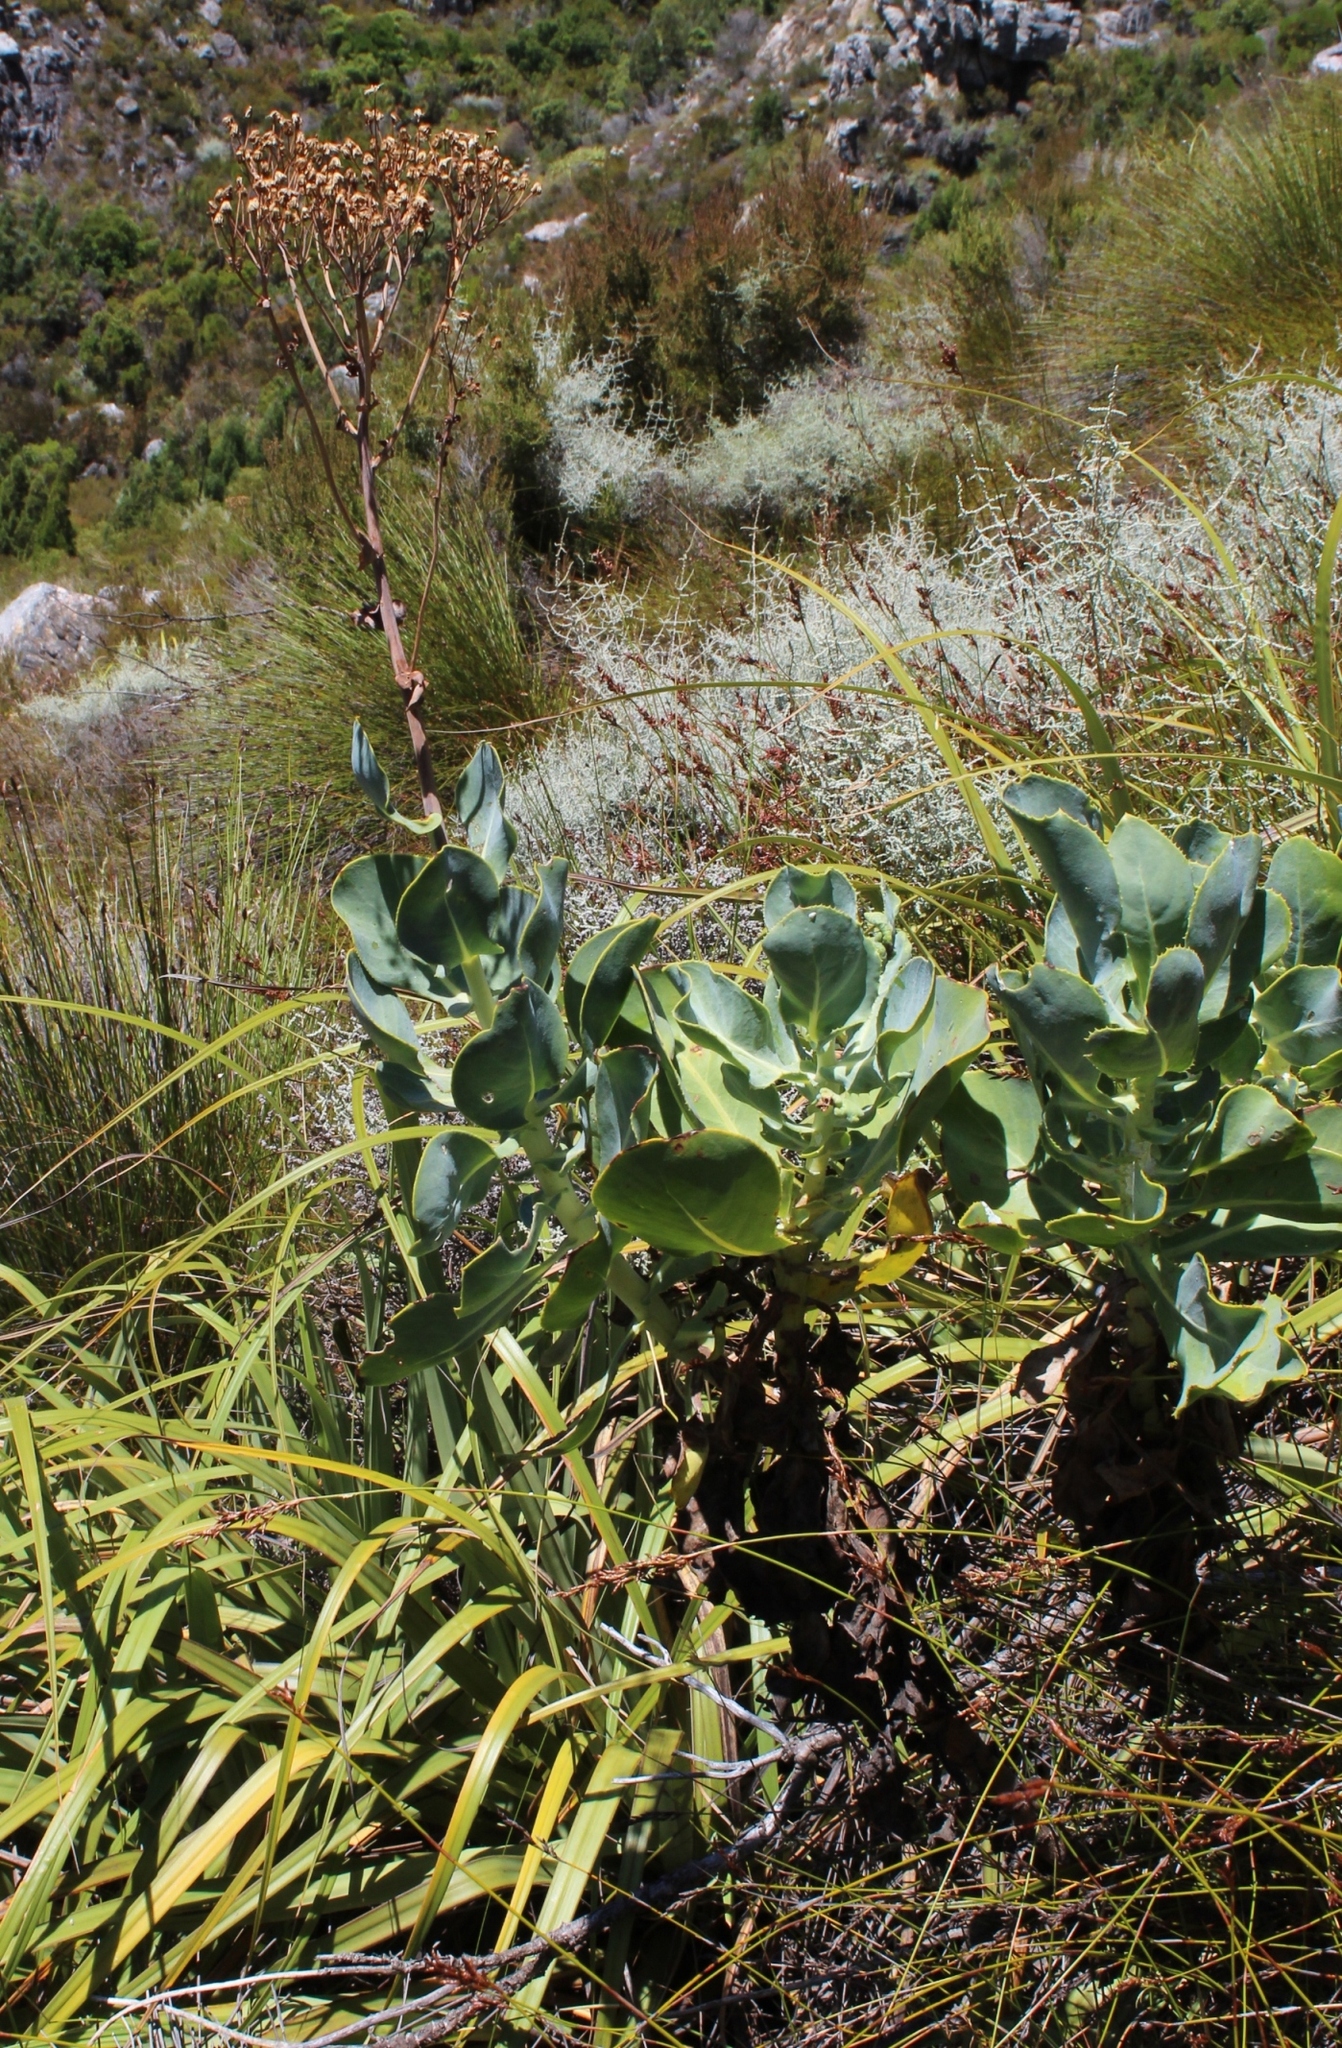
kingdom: Plantae
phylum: Tracheophyta
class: Magnoliopsida
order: Asterales
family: Asteraceae
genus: Othonna
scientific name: Othonna parviflora
